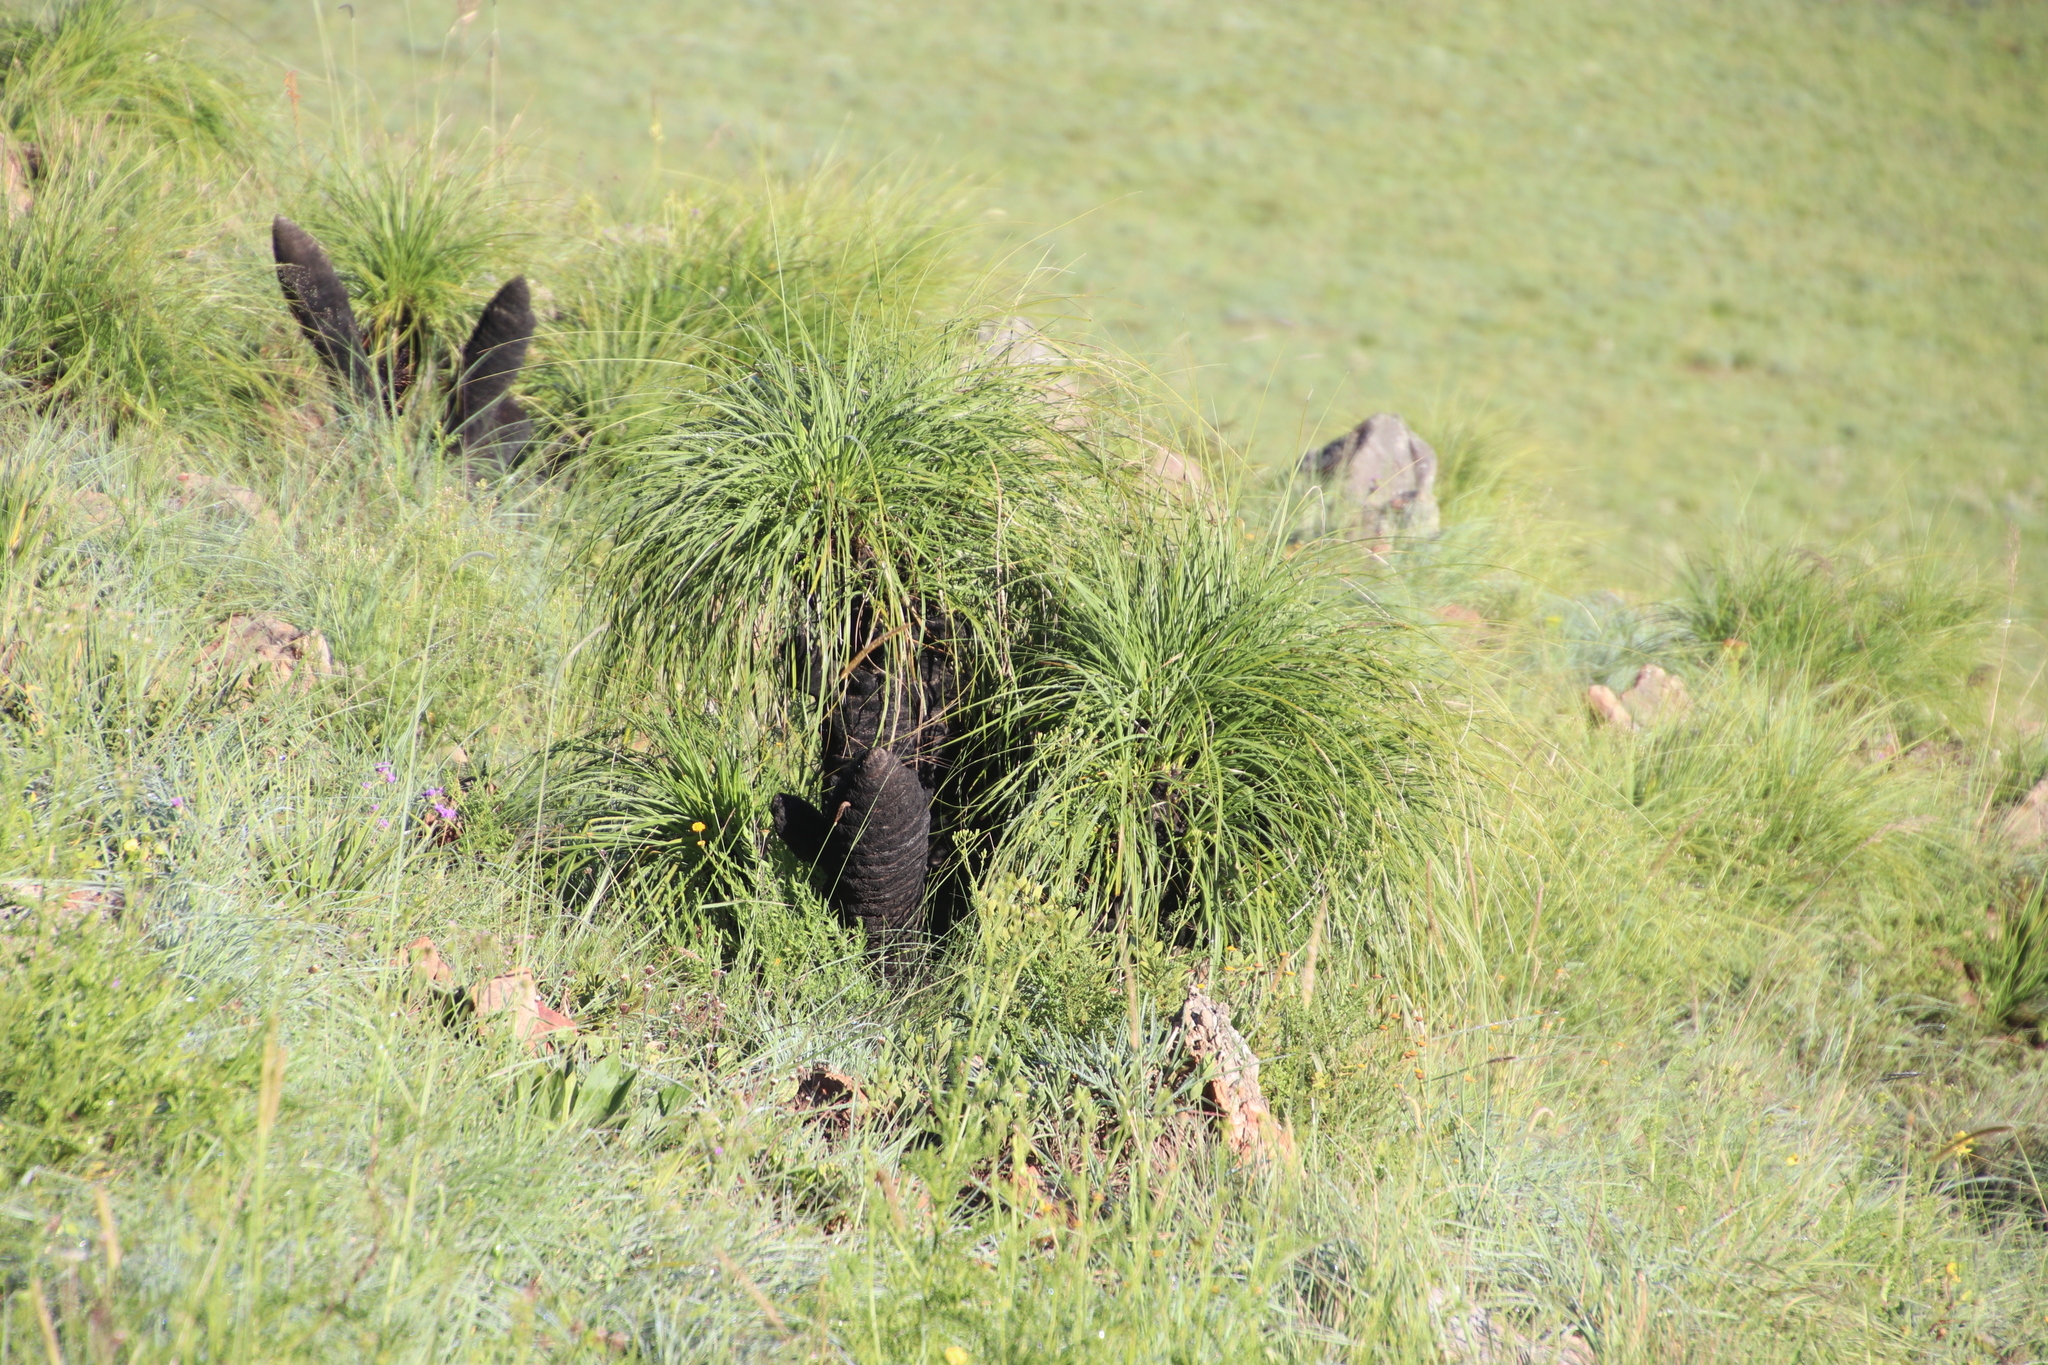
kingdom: Plantae
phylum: Tracheophyta
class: Liliopsida
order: Pandanales
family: Velloziaceae
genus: Xerophyta
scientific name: Xerophyta retinervis
